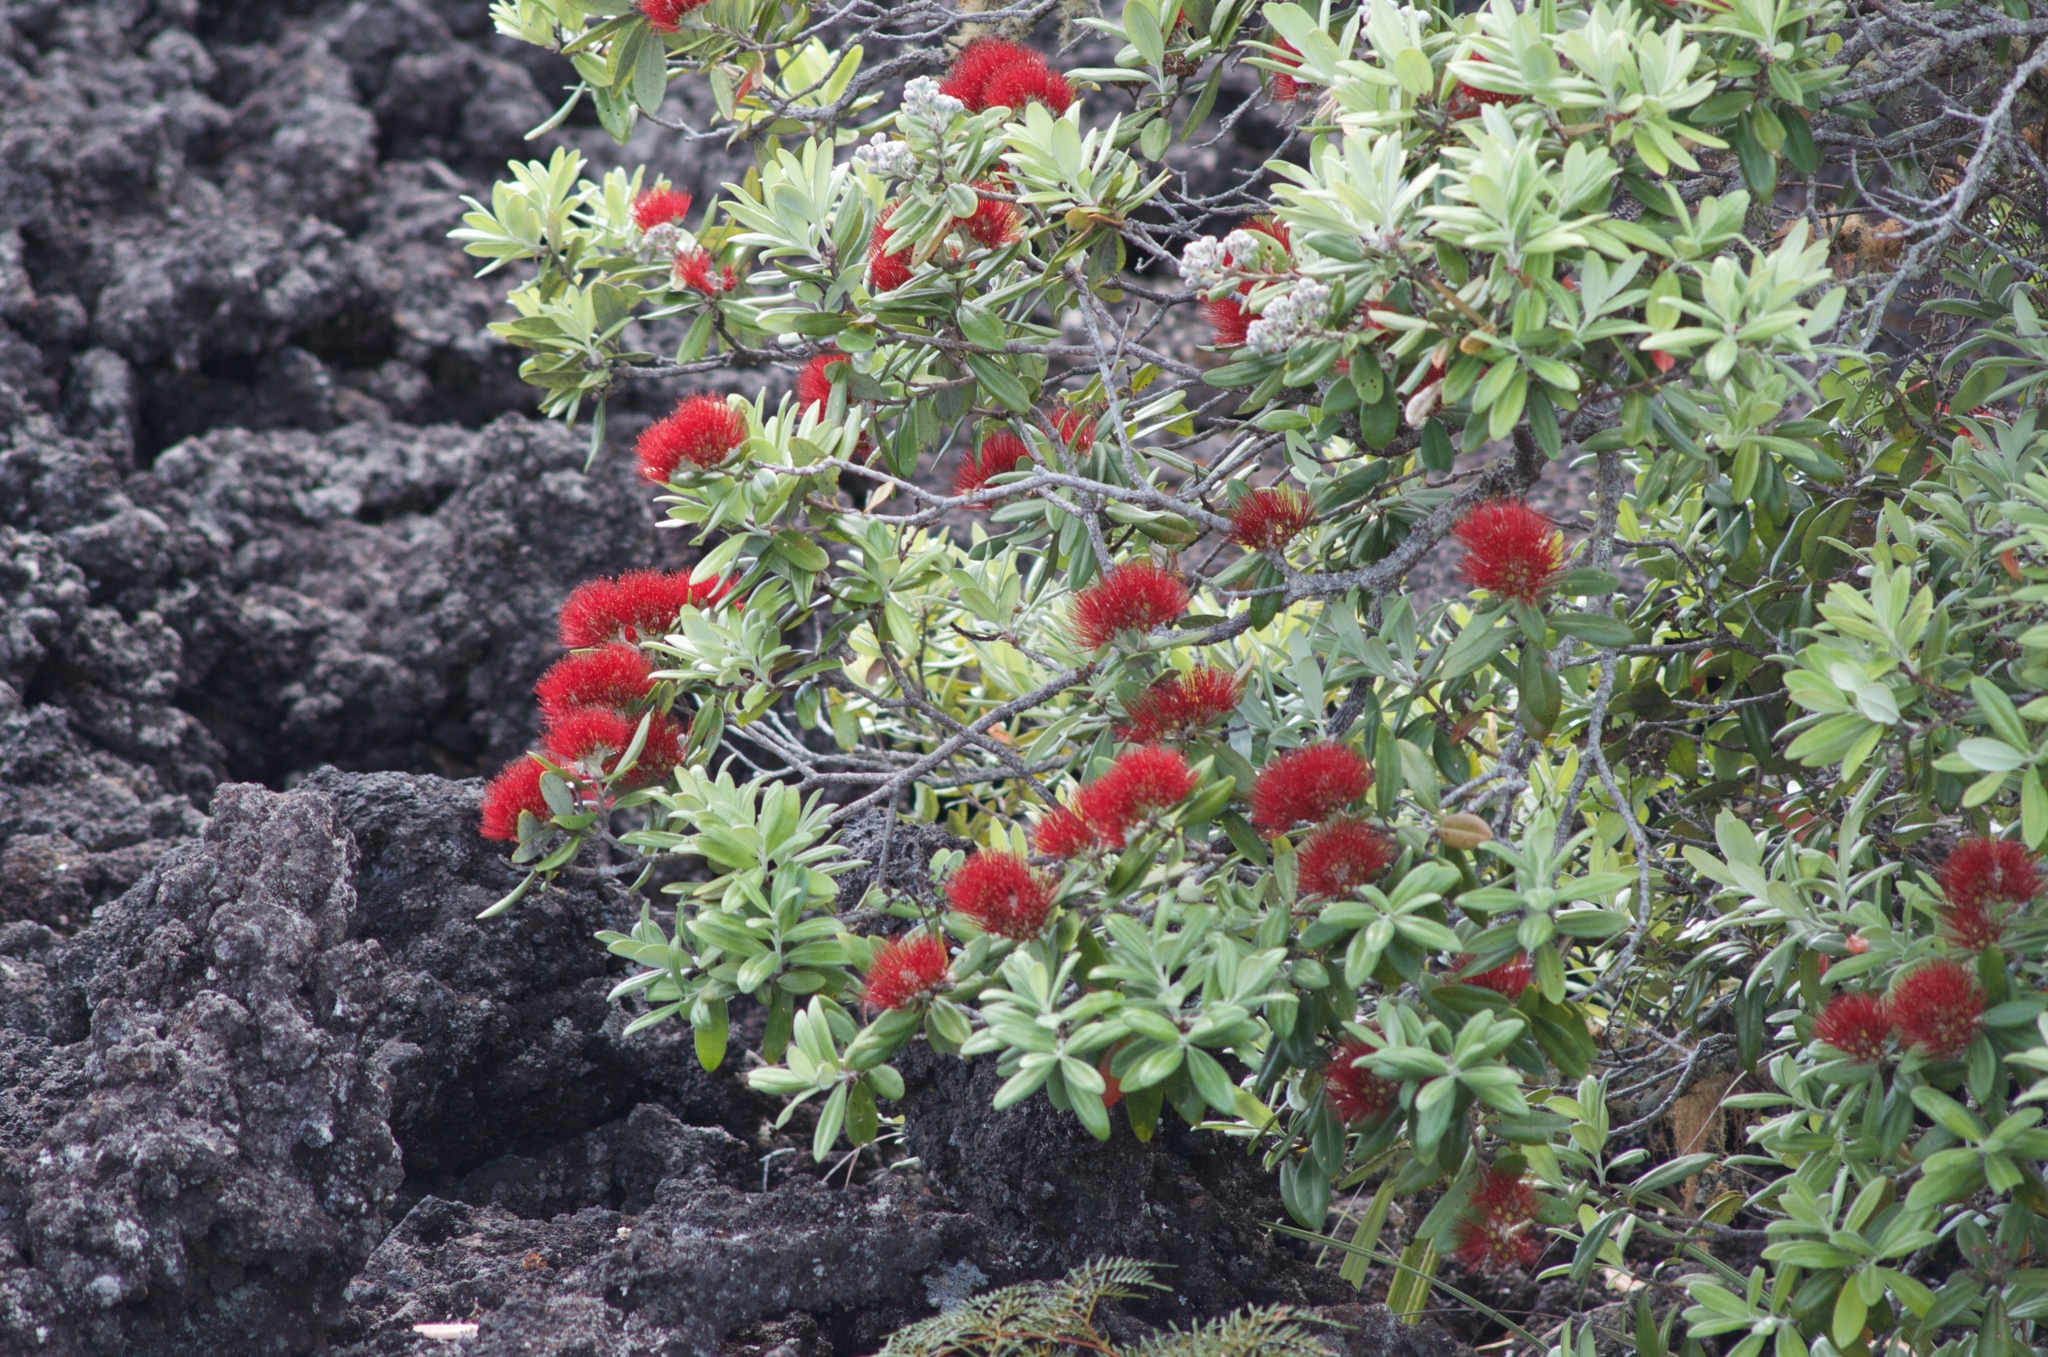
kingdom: Plantae
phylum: Tracheophyta
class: Magnoliopsida
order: Myrtales
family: Myrtaceae
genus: Metrosideros
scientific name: Metrosideros excelsa
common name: New zealand christmastree
